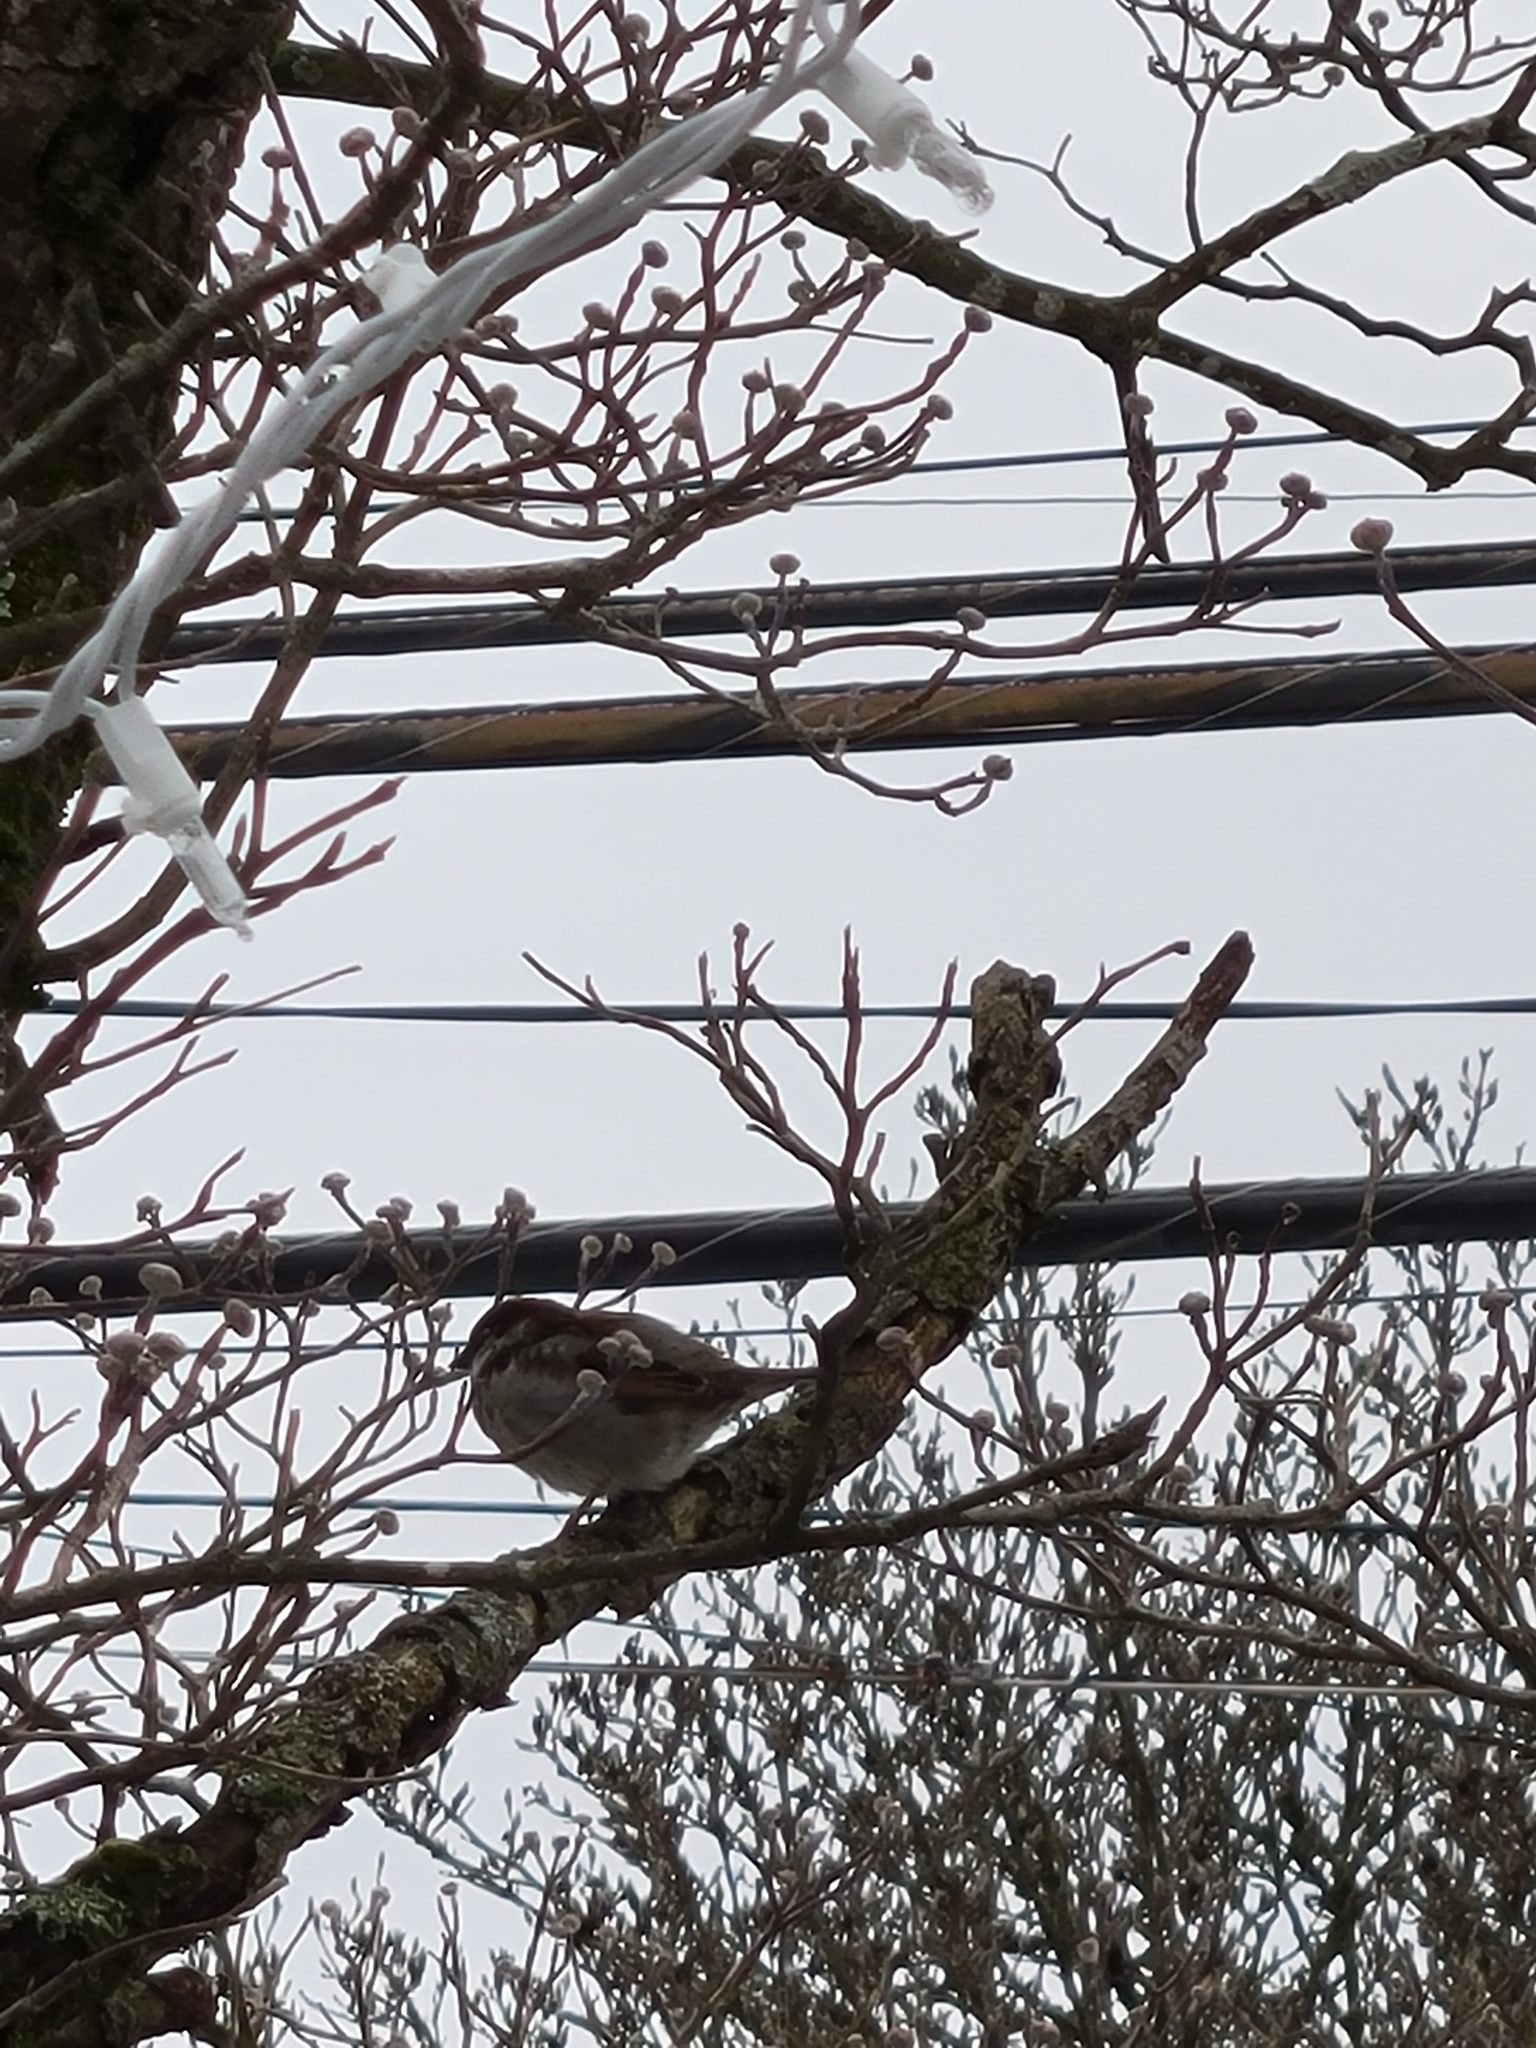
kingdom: Animalia
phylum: Chordata
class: Aves
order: Passeriformes
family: Passeridae
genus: Passer
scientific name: Passer domesticus
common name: House sparrow
